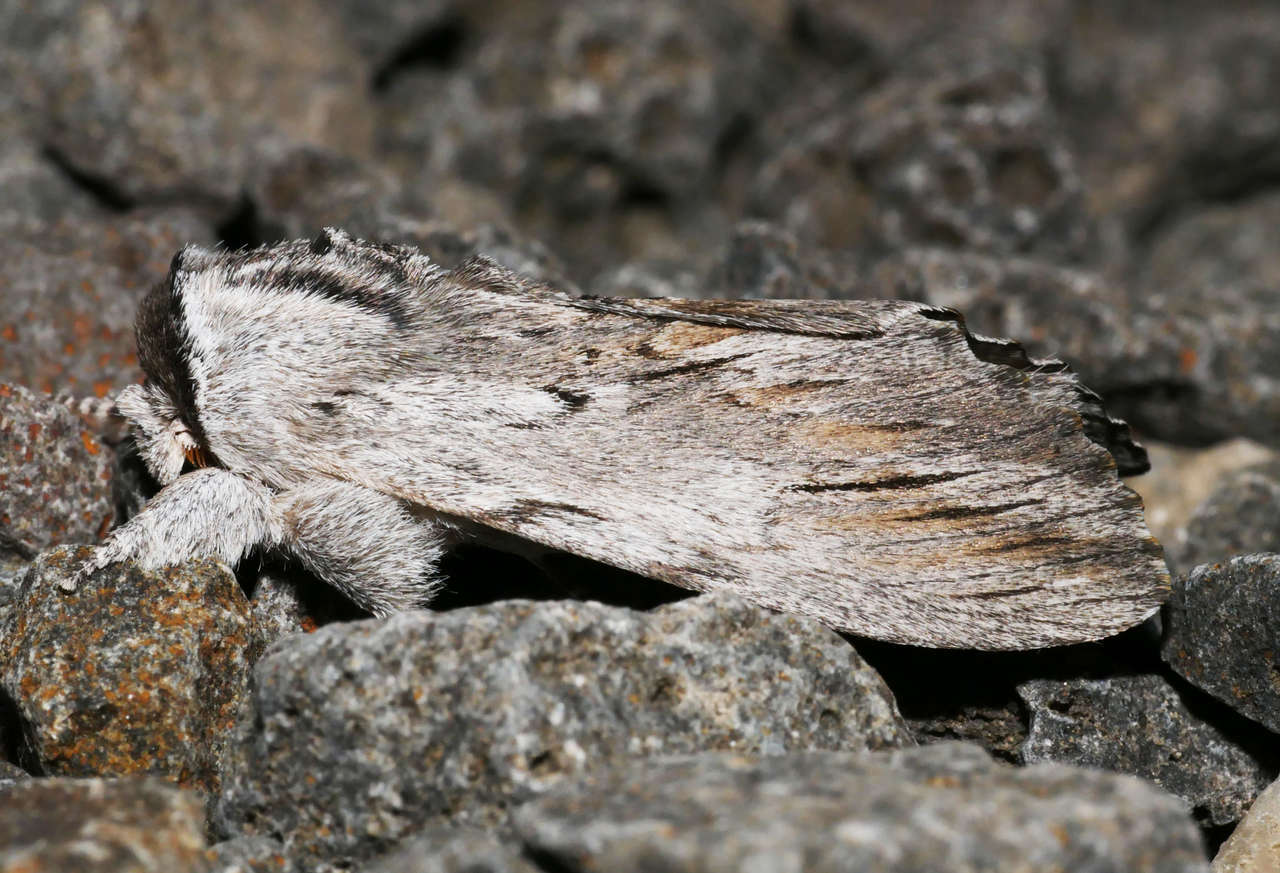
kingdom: Animalia
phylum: Arthropoda
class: Insecta
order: Lepidoptera
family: Notodontidae
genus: Destolmia
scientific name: Destolmia lineata
